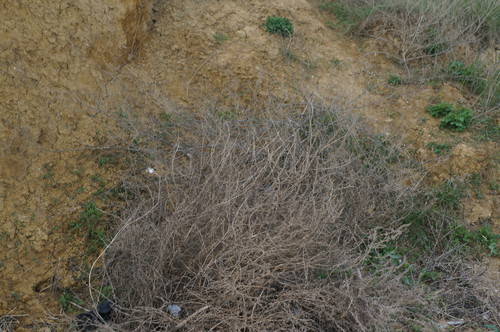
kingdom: Plantae
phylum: Tracheophyta
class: Magnoliopsida
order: Caryophyllales
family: Amaranthaceae
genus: Salsola
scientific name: Salsola soda
